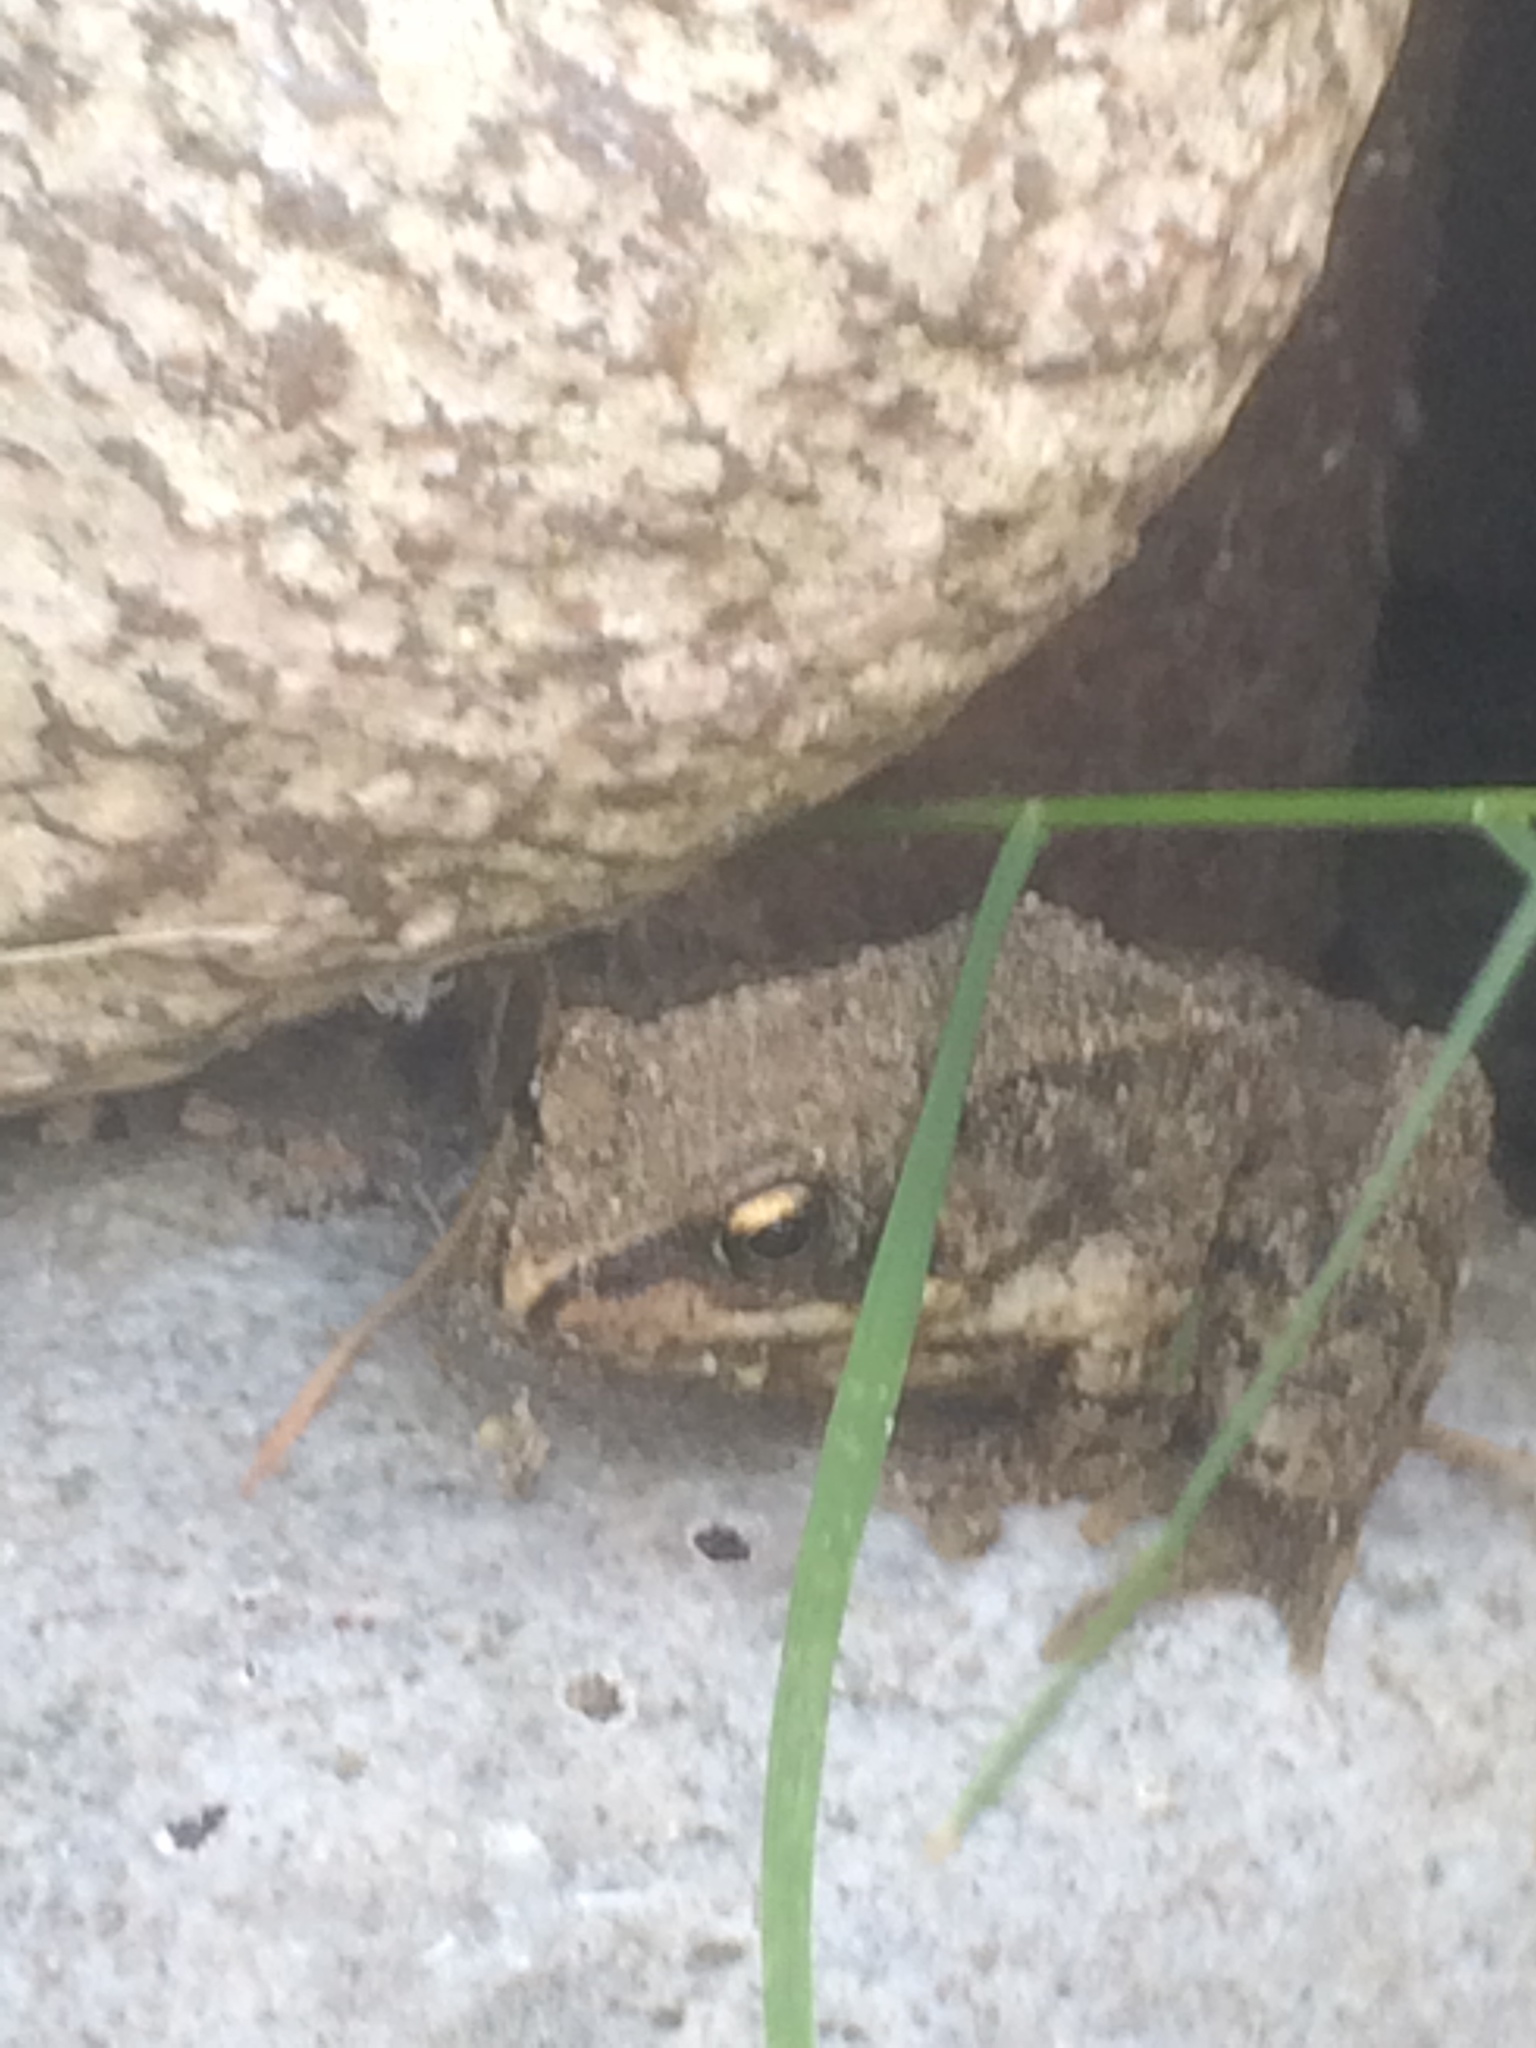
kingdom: Animalia
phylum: Chordata
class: Amphibia
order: Anura
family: Ranidae
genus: Rana
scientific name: Rana temporaria
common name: Common frog
